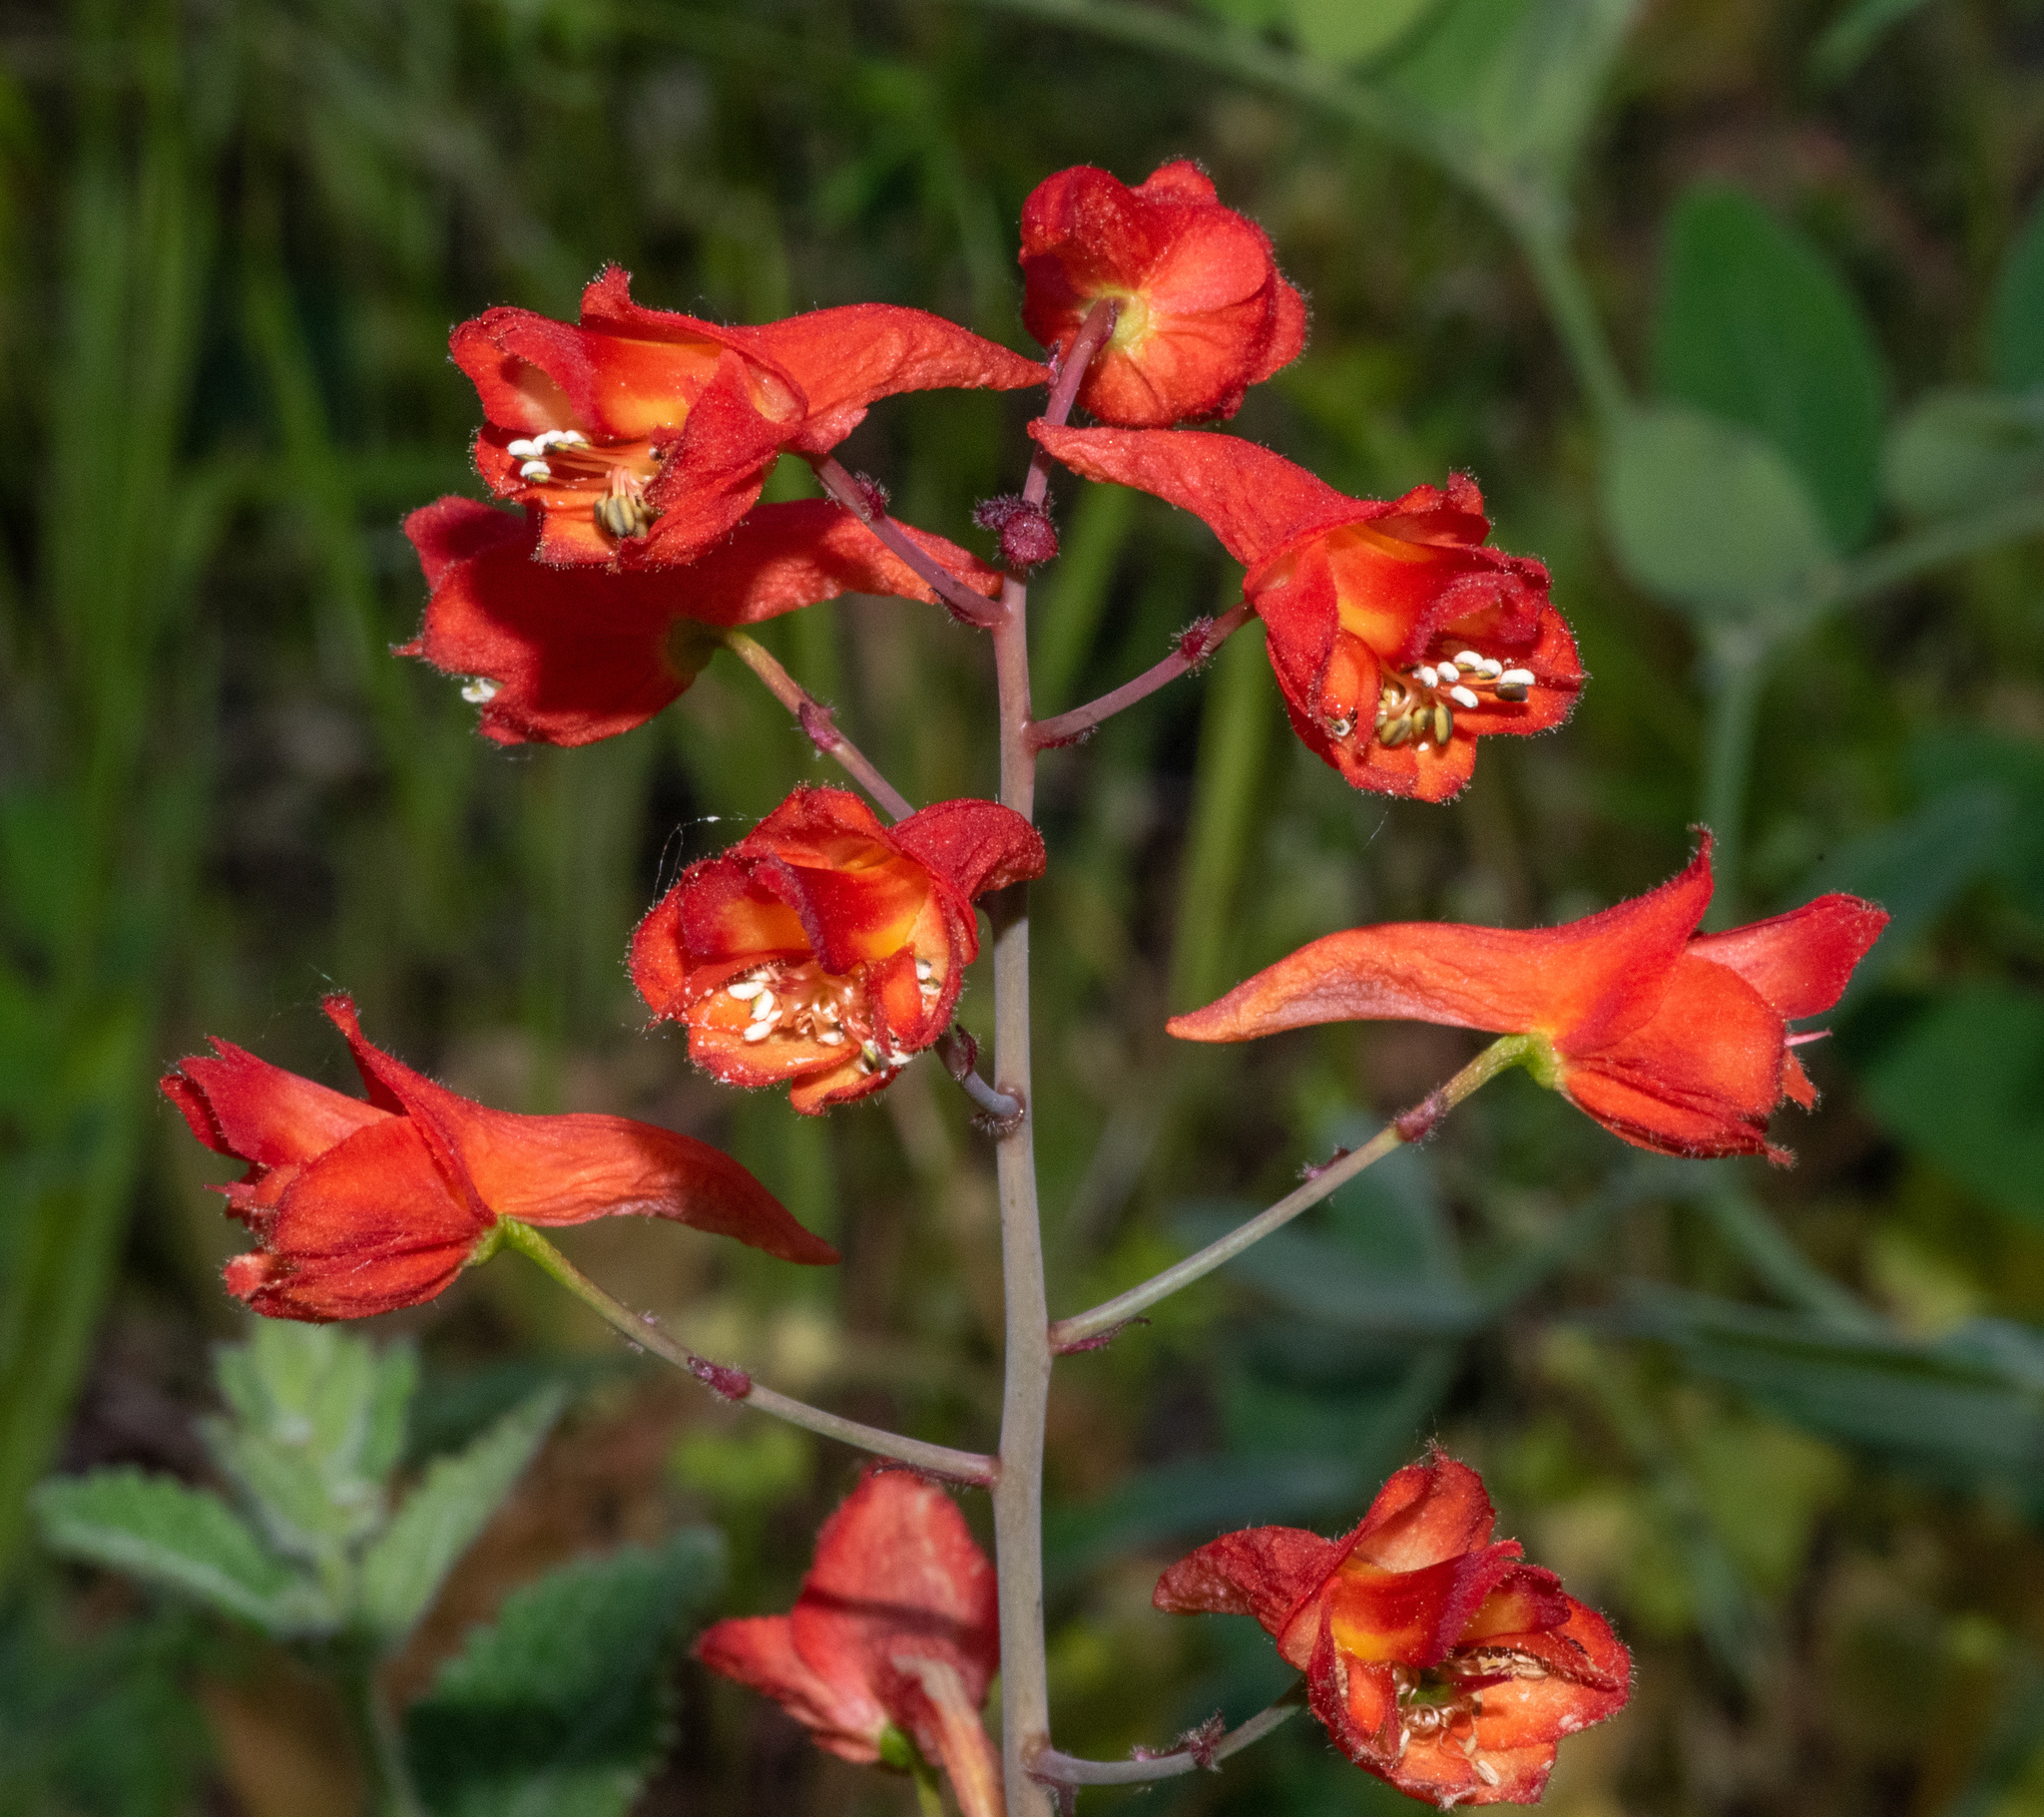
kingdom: Plantae
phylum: Tracheophyta
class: Magnoliopsida
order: Ranunculales
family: Ranunculaceae
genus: Delphinium
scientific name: Delphinium nudicaule
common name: Red larkspur
